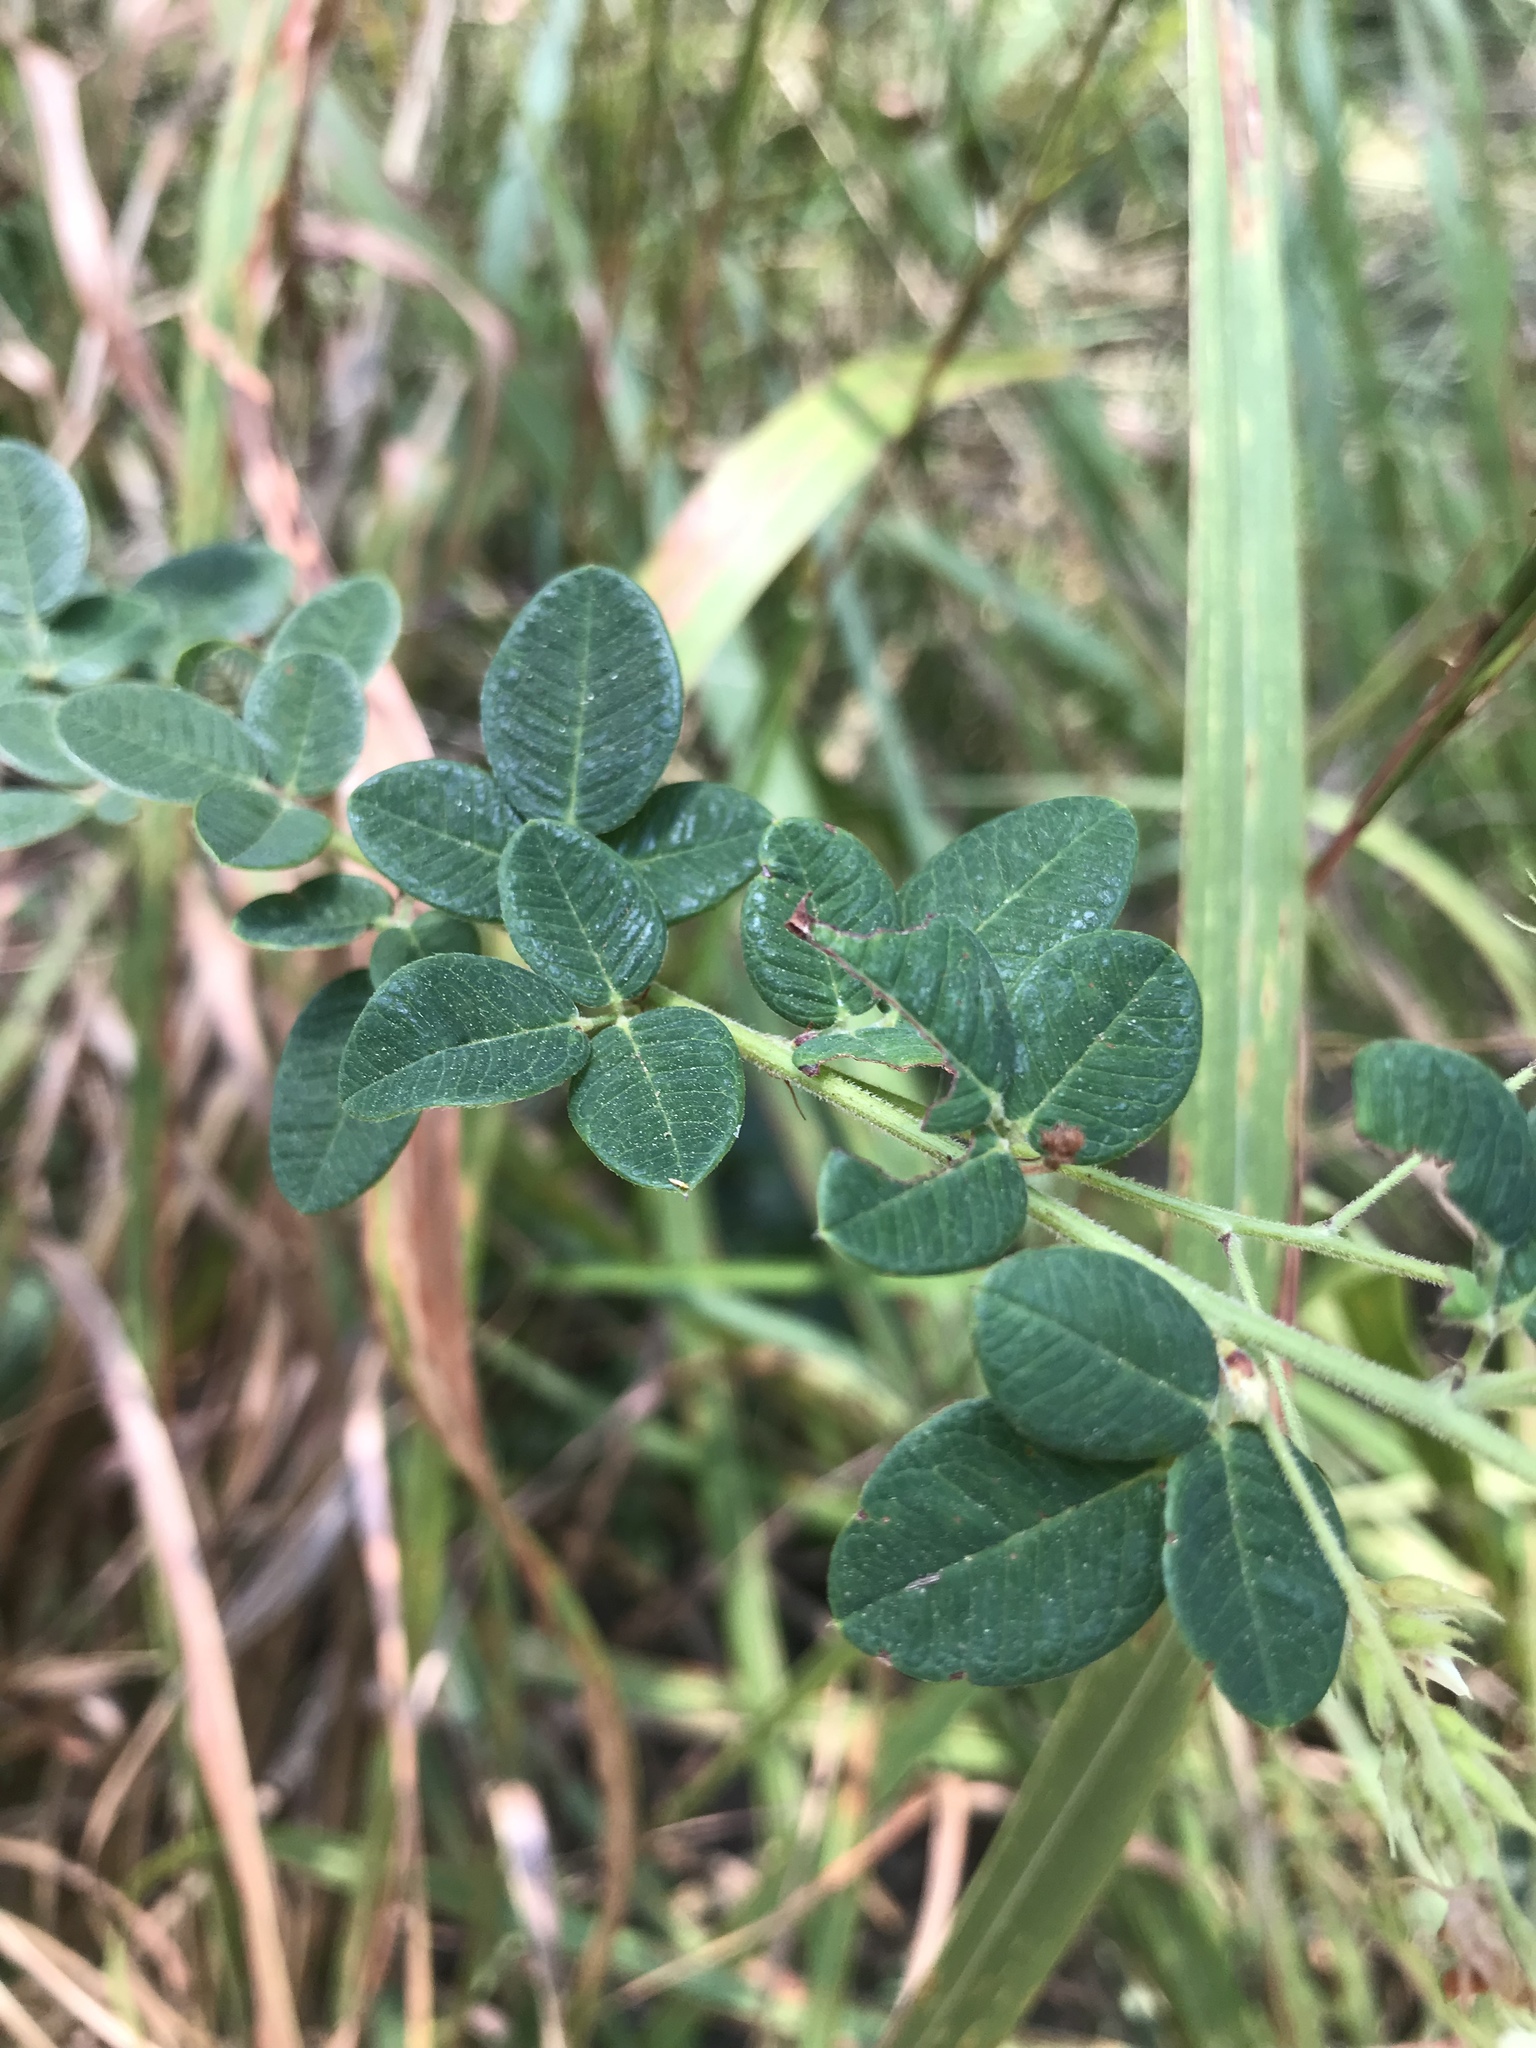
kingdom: Plantae
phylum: Tracheophyta
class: Magnoliopsida
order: Fabales
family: Fabaceae
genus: Lespedeza
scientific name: Lespedeza hirta
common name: Hairy lespedeza
